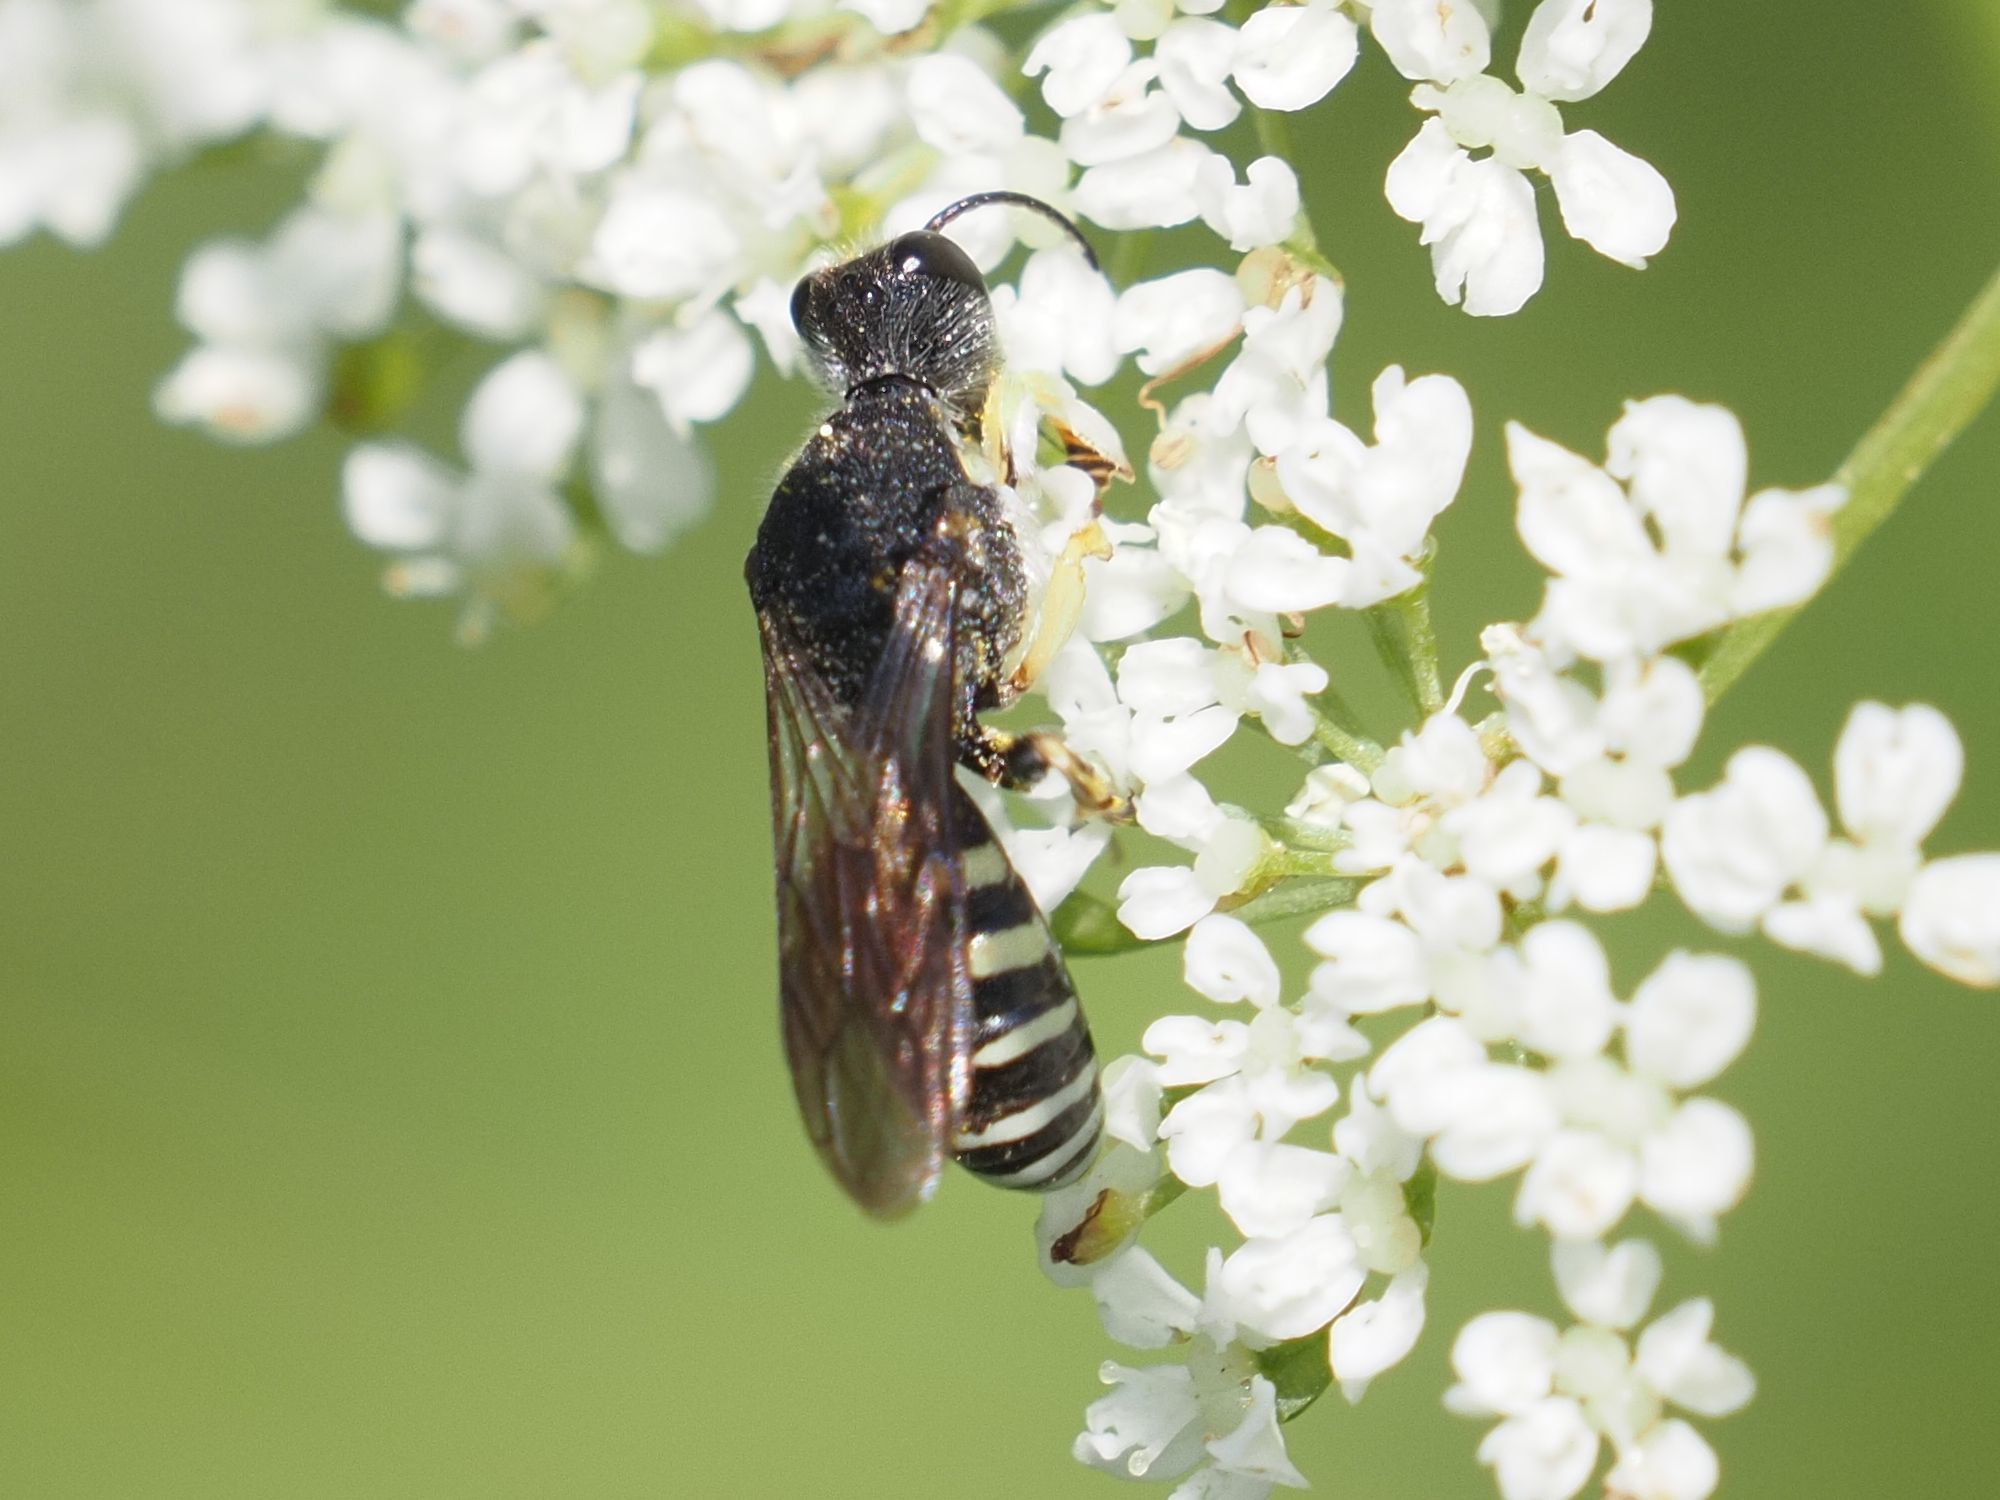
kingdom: Animalia
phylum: Arthropoda
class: Insecta
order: Hymenoptera
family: Crabronidae
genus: Lestica
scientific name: Lestica clypeata
